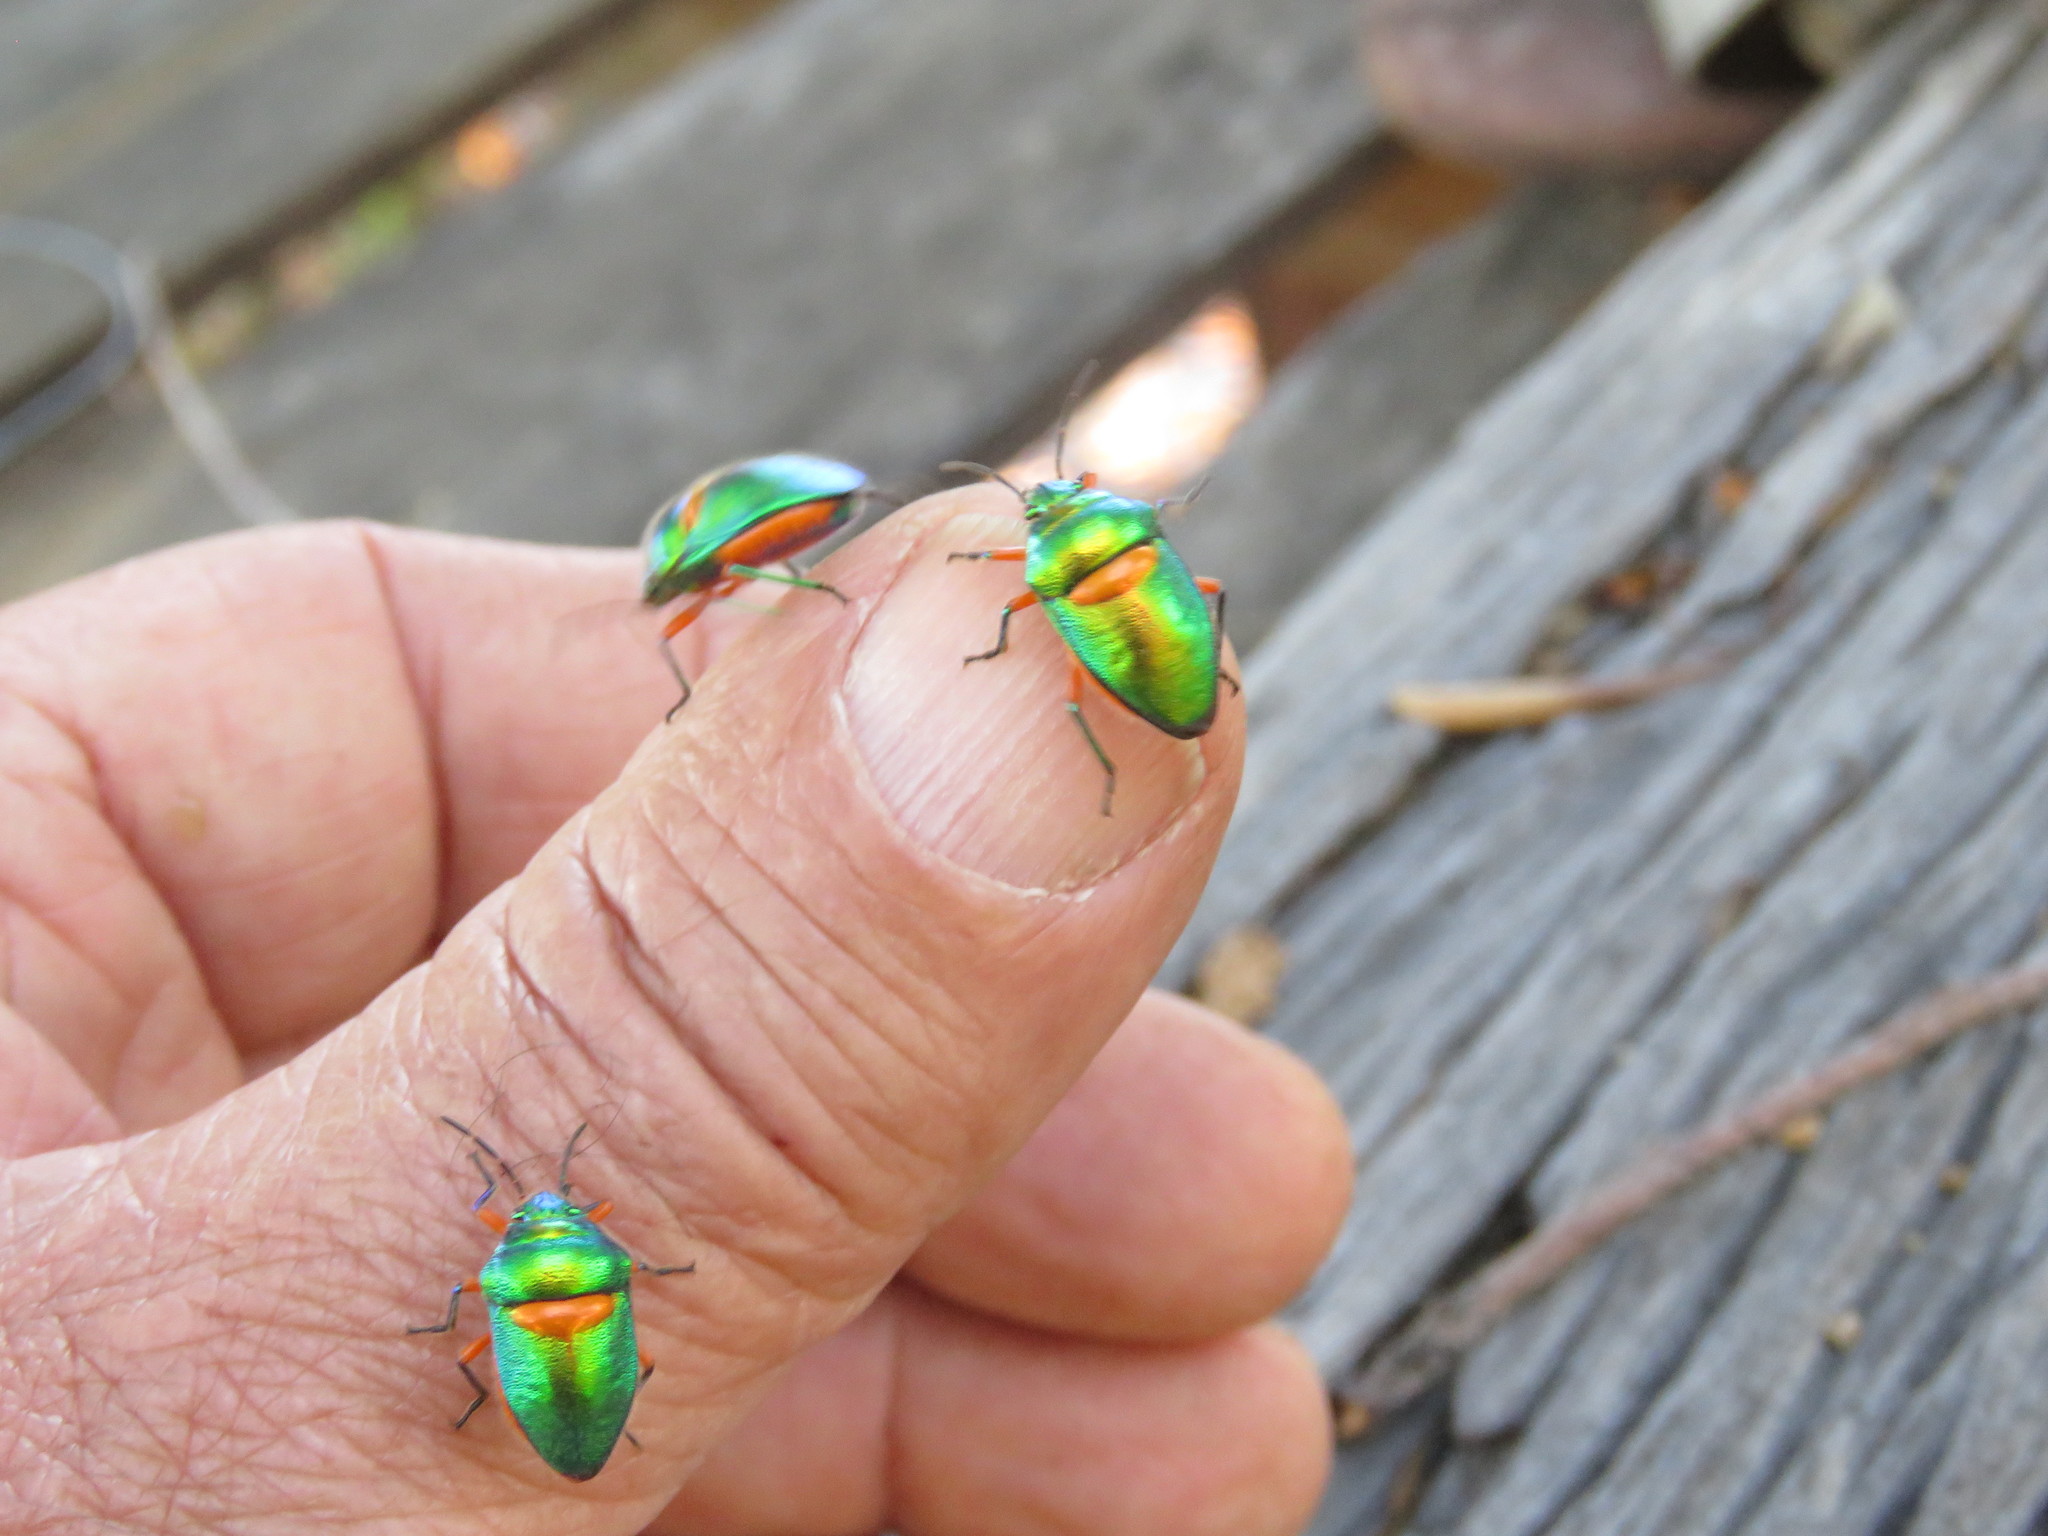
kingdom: Animalia
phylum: Arthropoda
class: Insecta
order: Hemiptera
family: Scutelleridae
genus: Lampromicra
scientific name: Lampromicra senator
